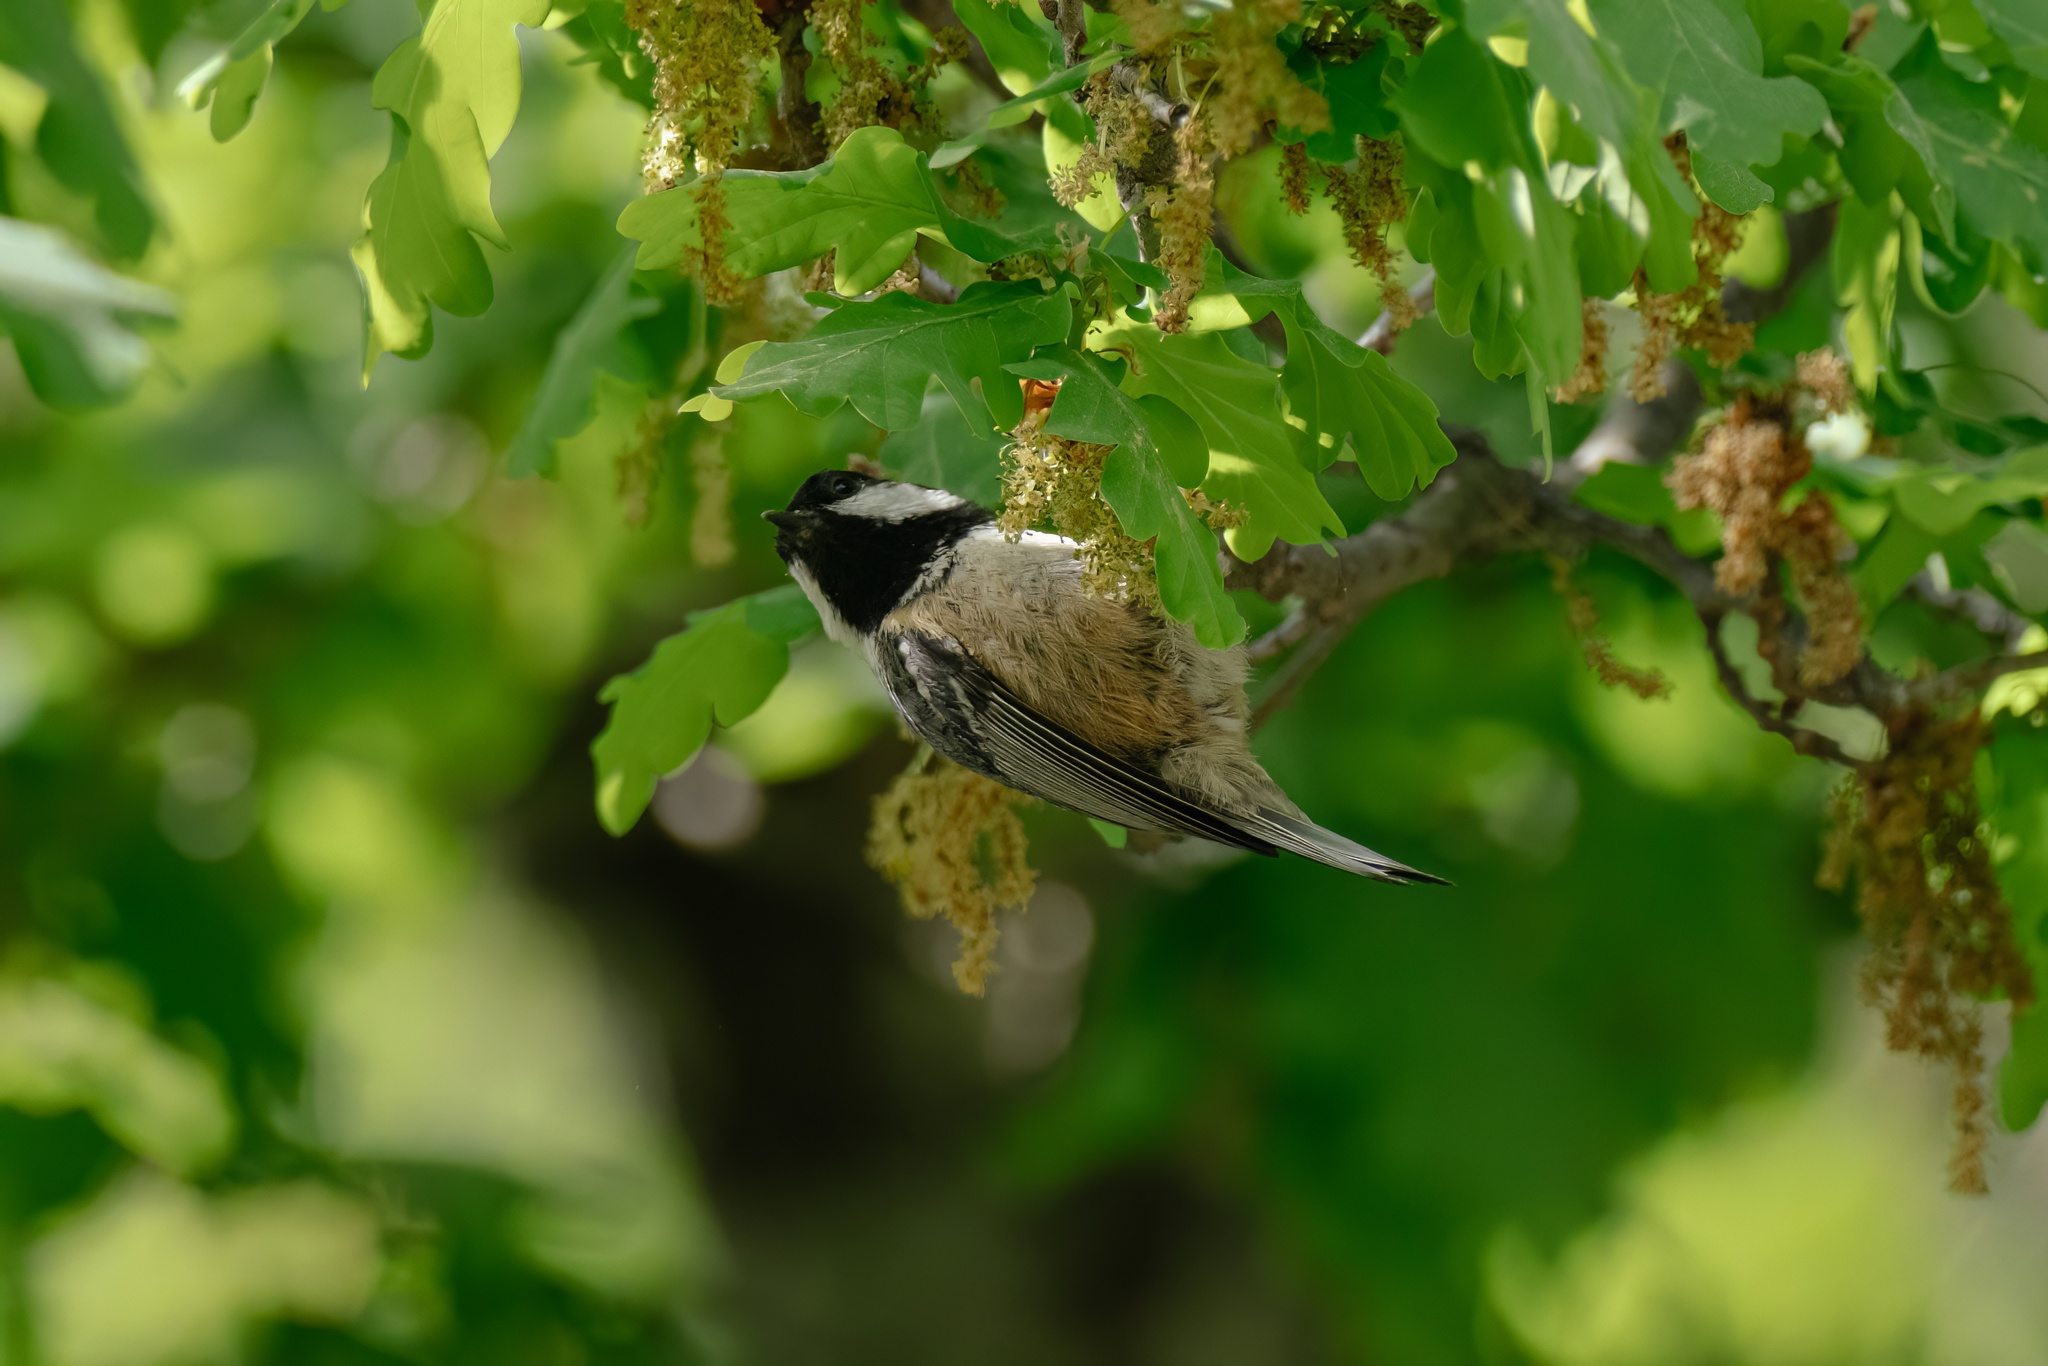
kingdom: Animalia
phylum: Chordata
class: Aves
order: Passeriformes
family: Paridae
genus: Periparus
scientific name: Periparus ater
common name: Coal tit
